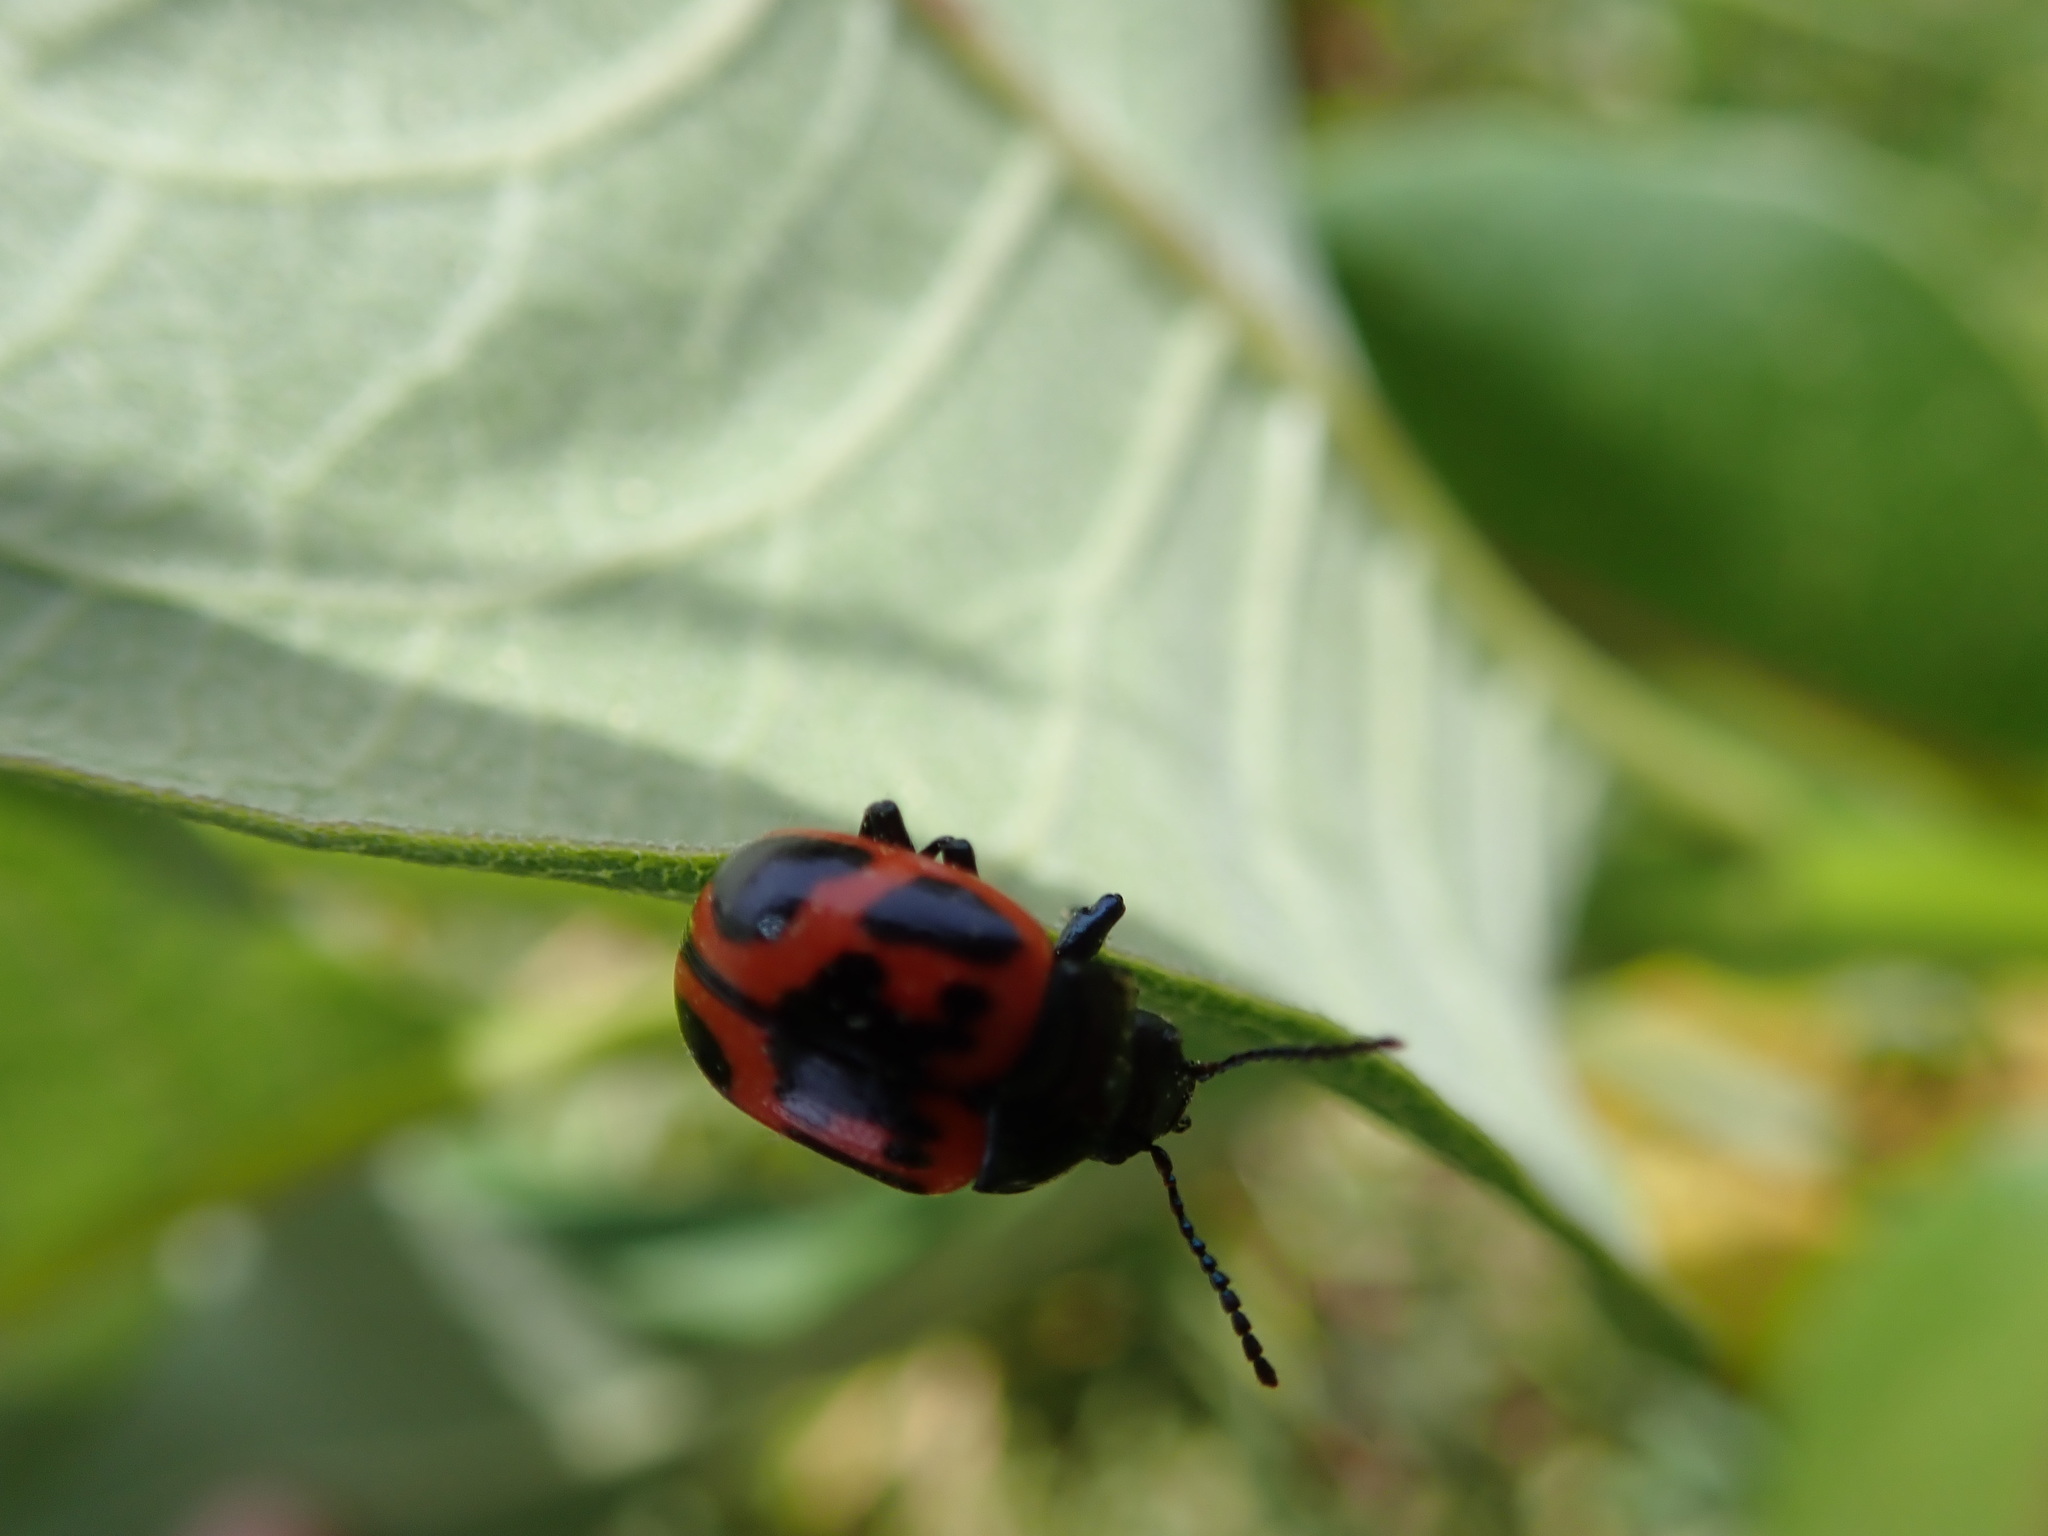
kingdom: Animalia
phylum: Arthropoda
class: Insecta
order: Coleoptera
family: Chrysomelidae
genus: Labidomera
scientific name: Labidomera clivicollis
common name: Swamp milkweed leaf beetle
